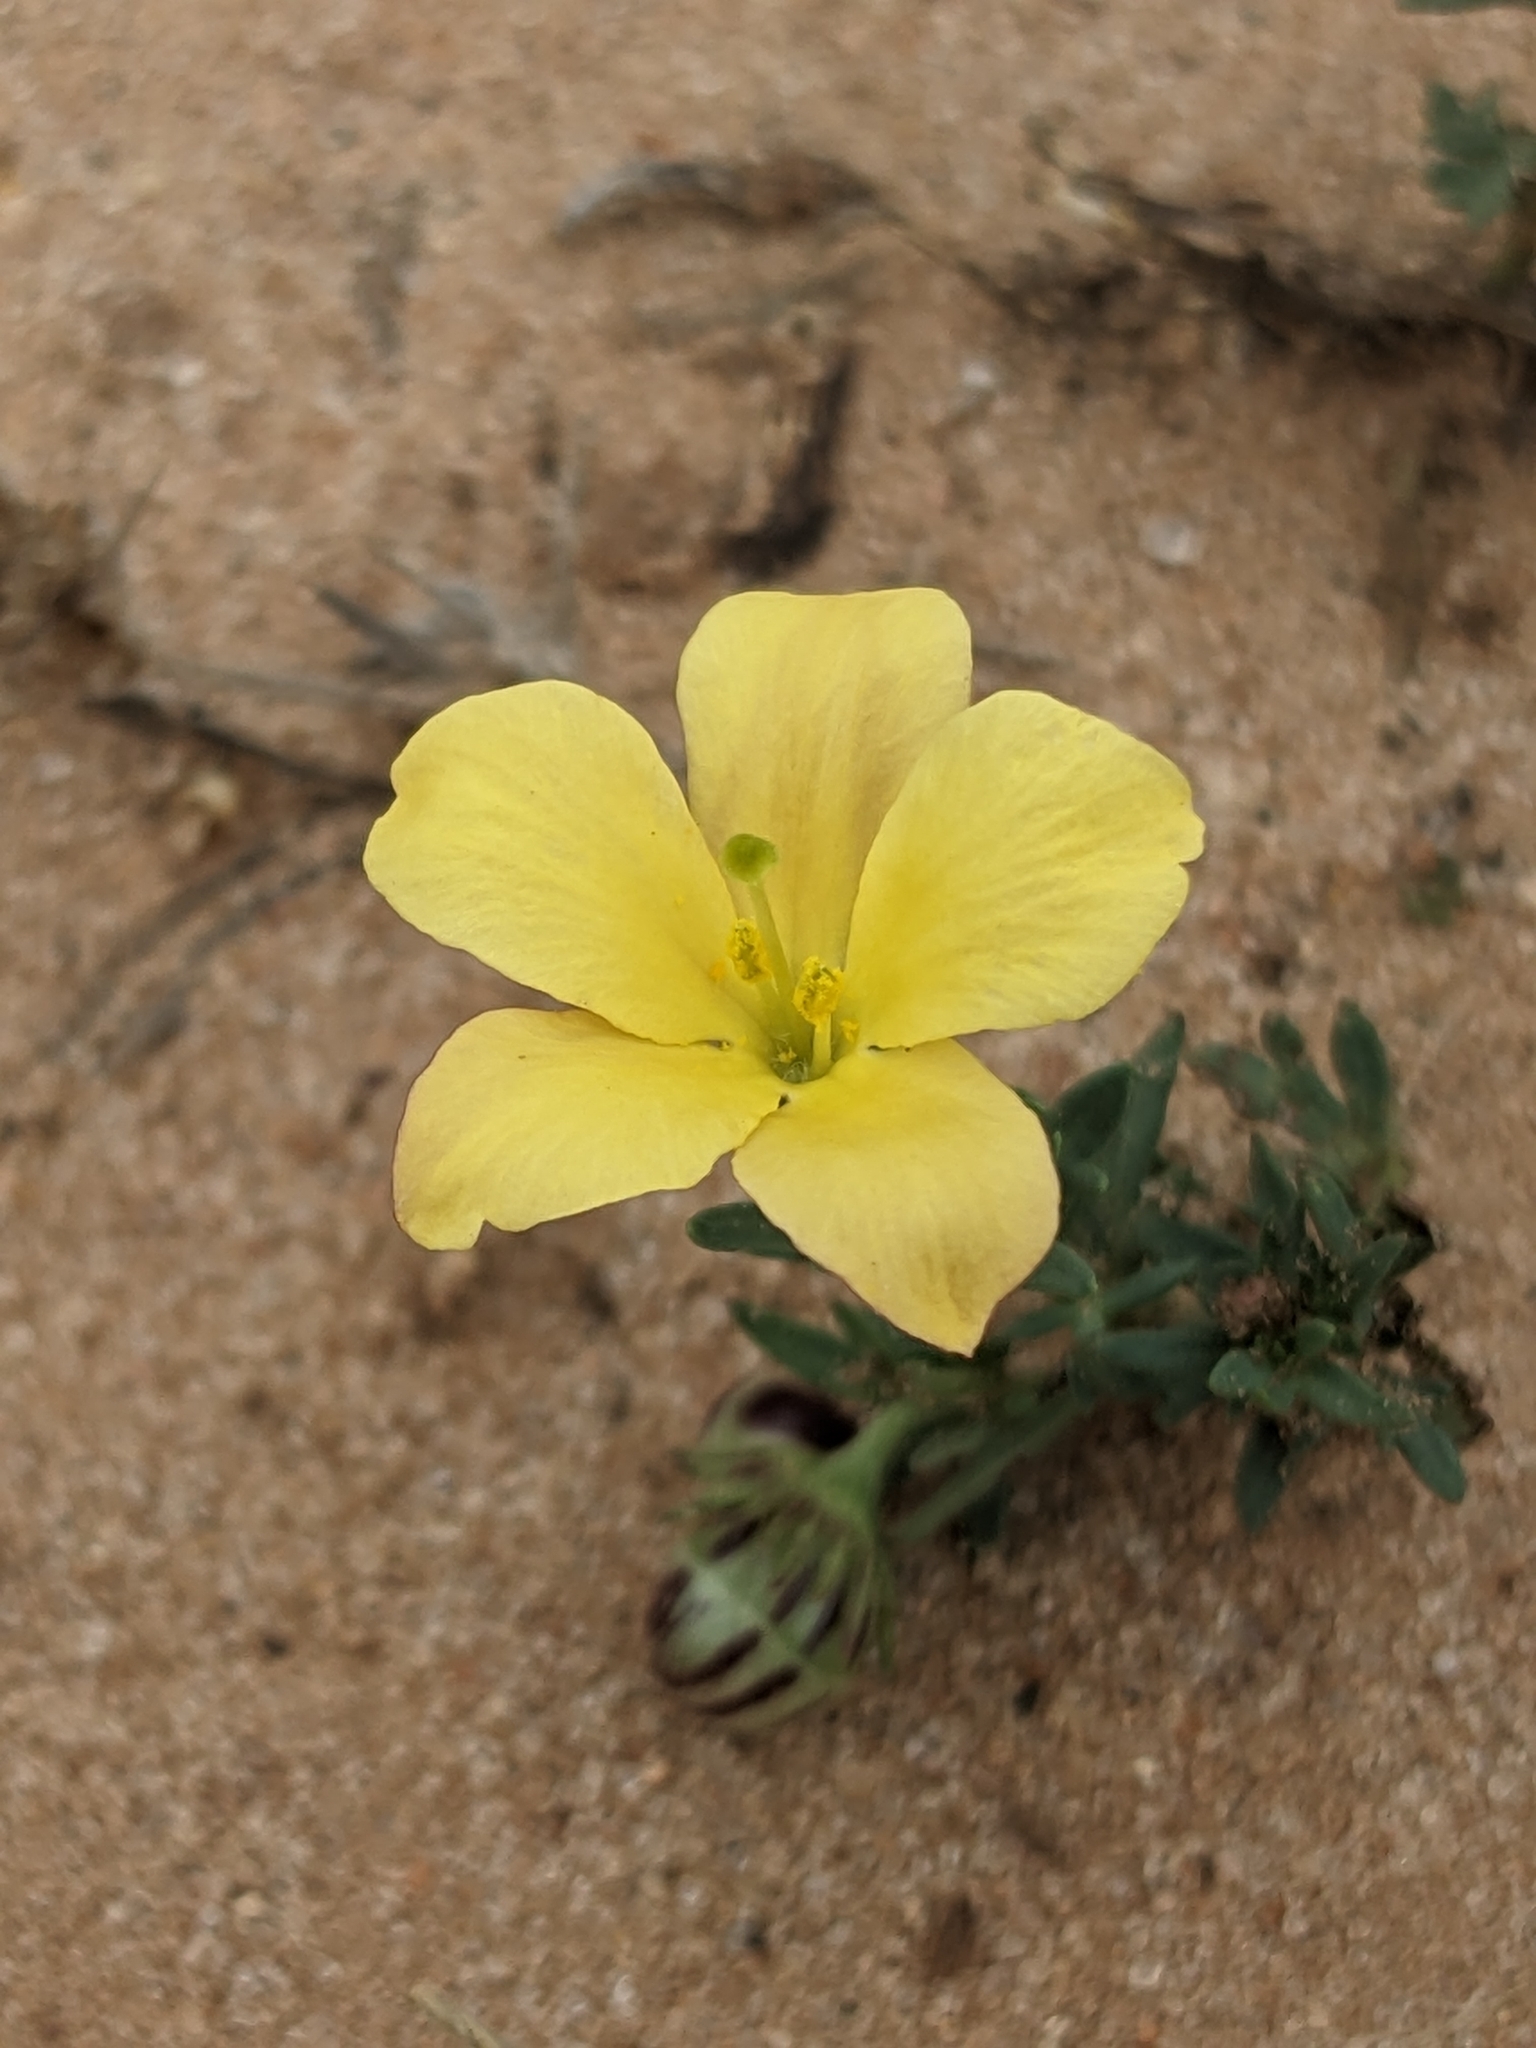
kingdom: Plantae
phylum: Tracheophyta
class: Magnoliopsida
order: Lamiales
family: Oleaceae
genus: Menodora
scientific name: Menodora heterophylla
